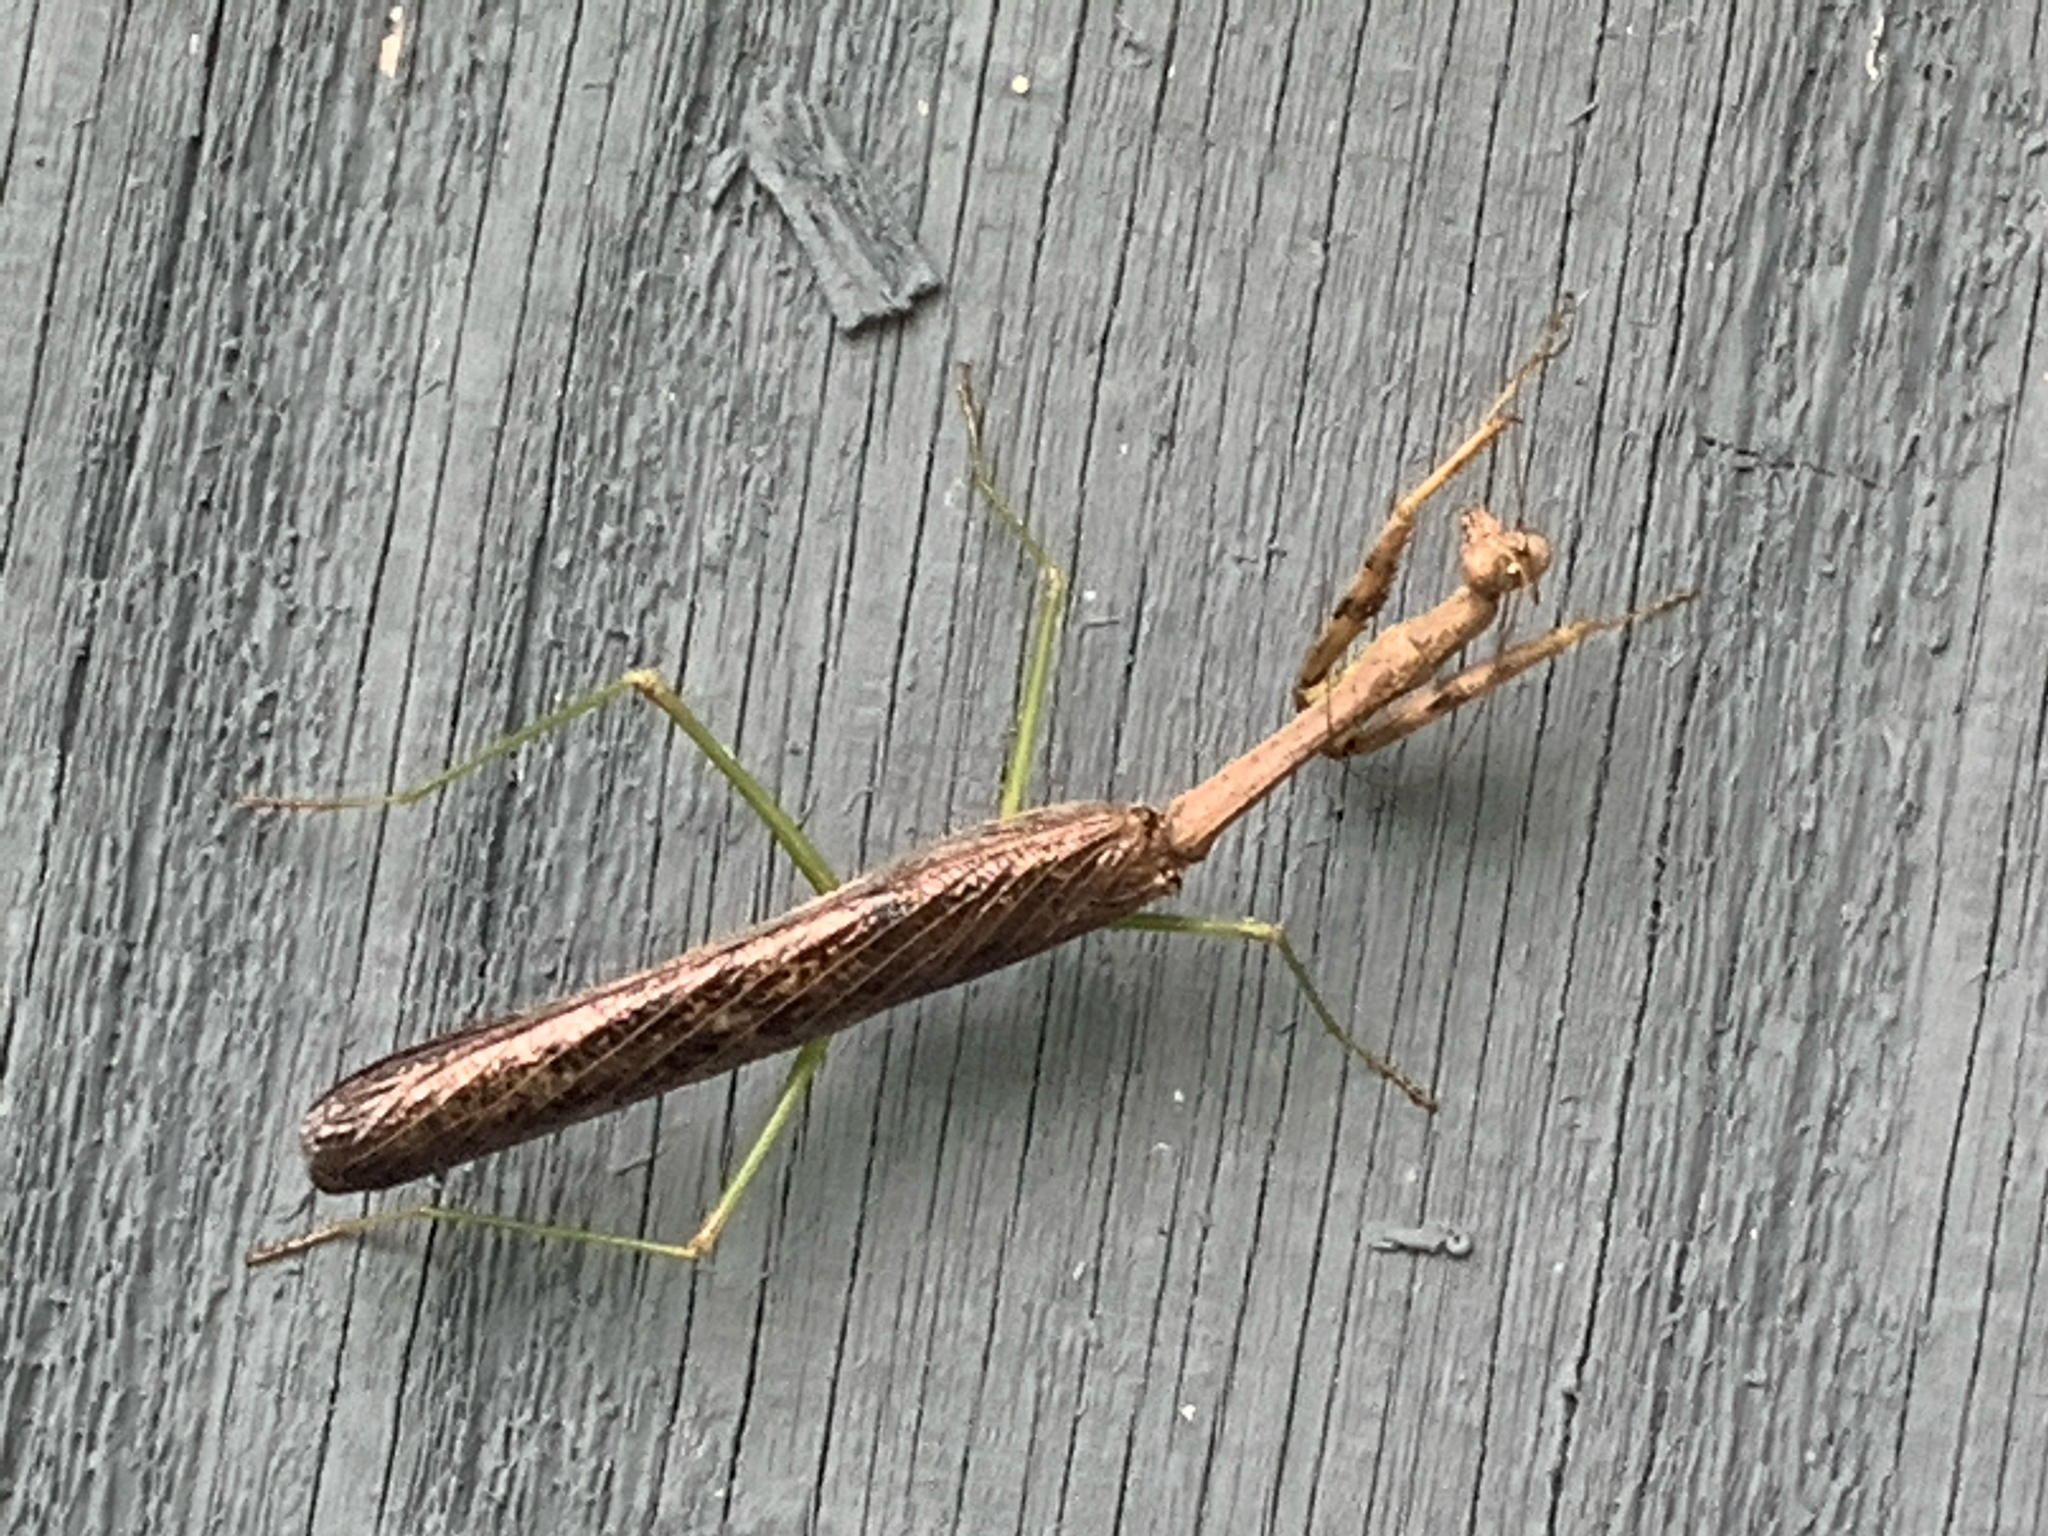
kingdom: Animalia
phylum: Arthropoda
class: Insecta
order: Mantodea
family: Mantidae
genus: Stagmomantis
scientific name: Stagmomantis carolina
